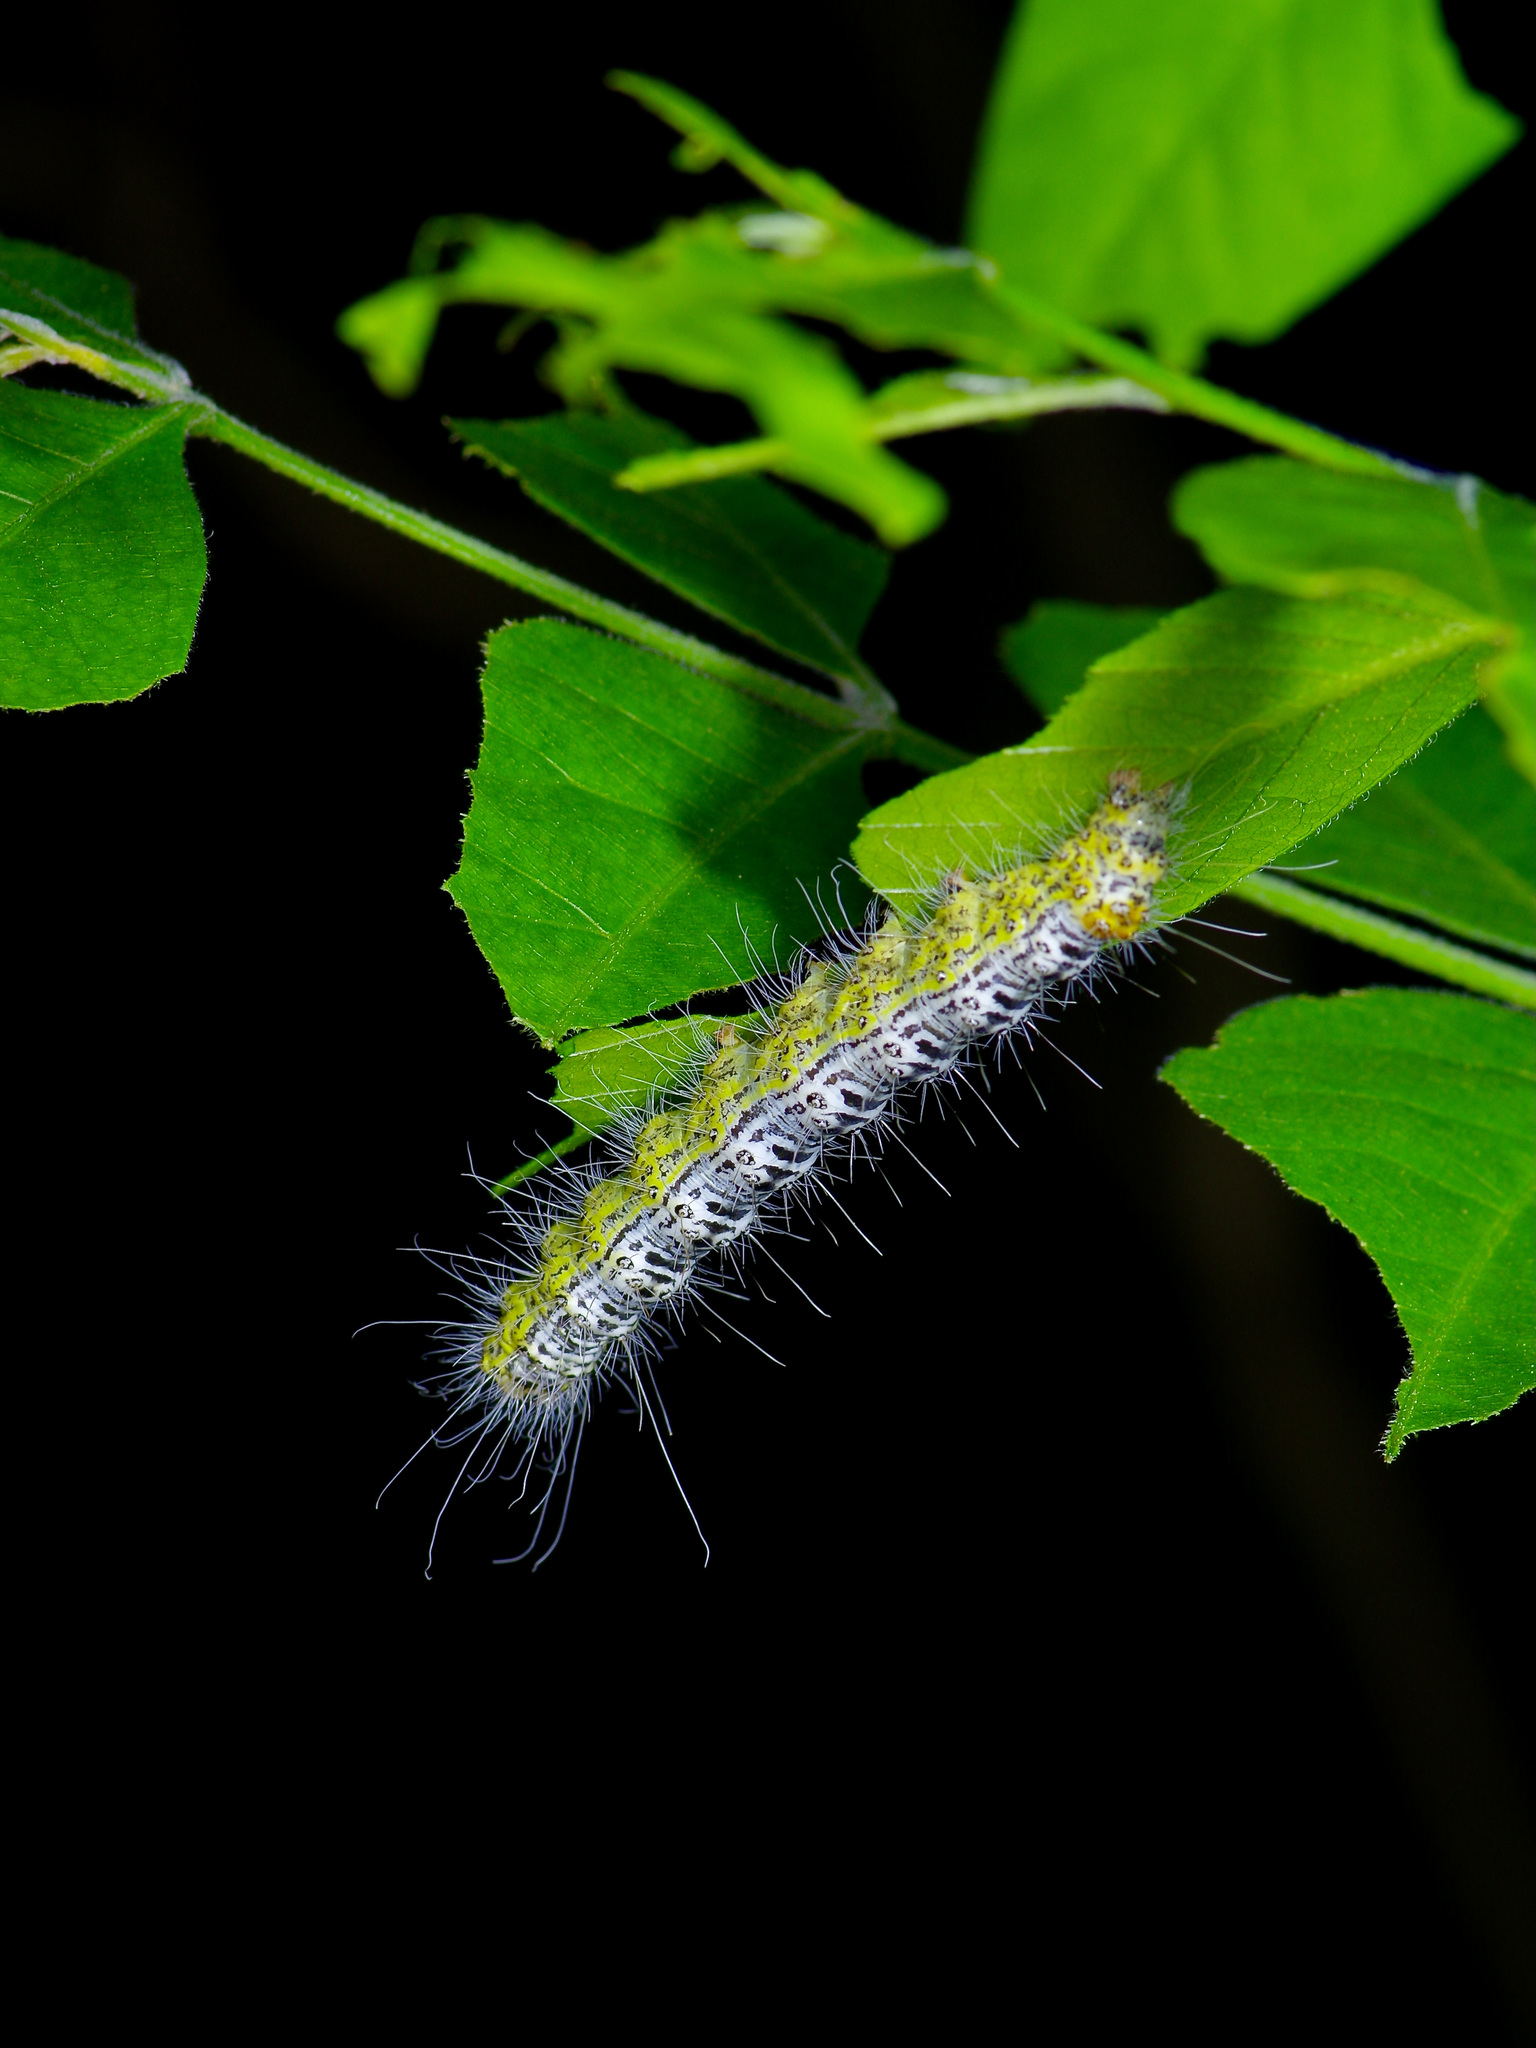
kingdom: Animalia
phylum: Arthropoda
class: Insecta
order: Lepidoptera
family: Noctuidae
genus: Acronicta
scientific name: Acronicta tota
